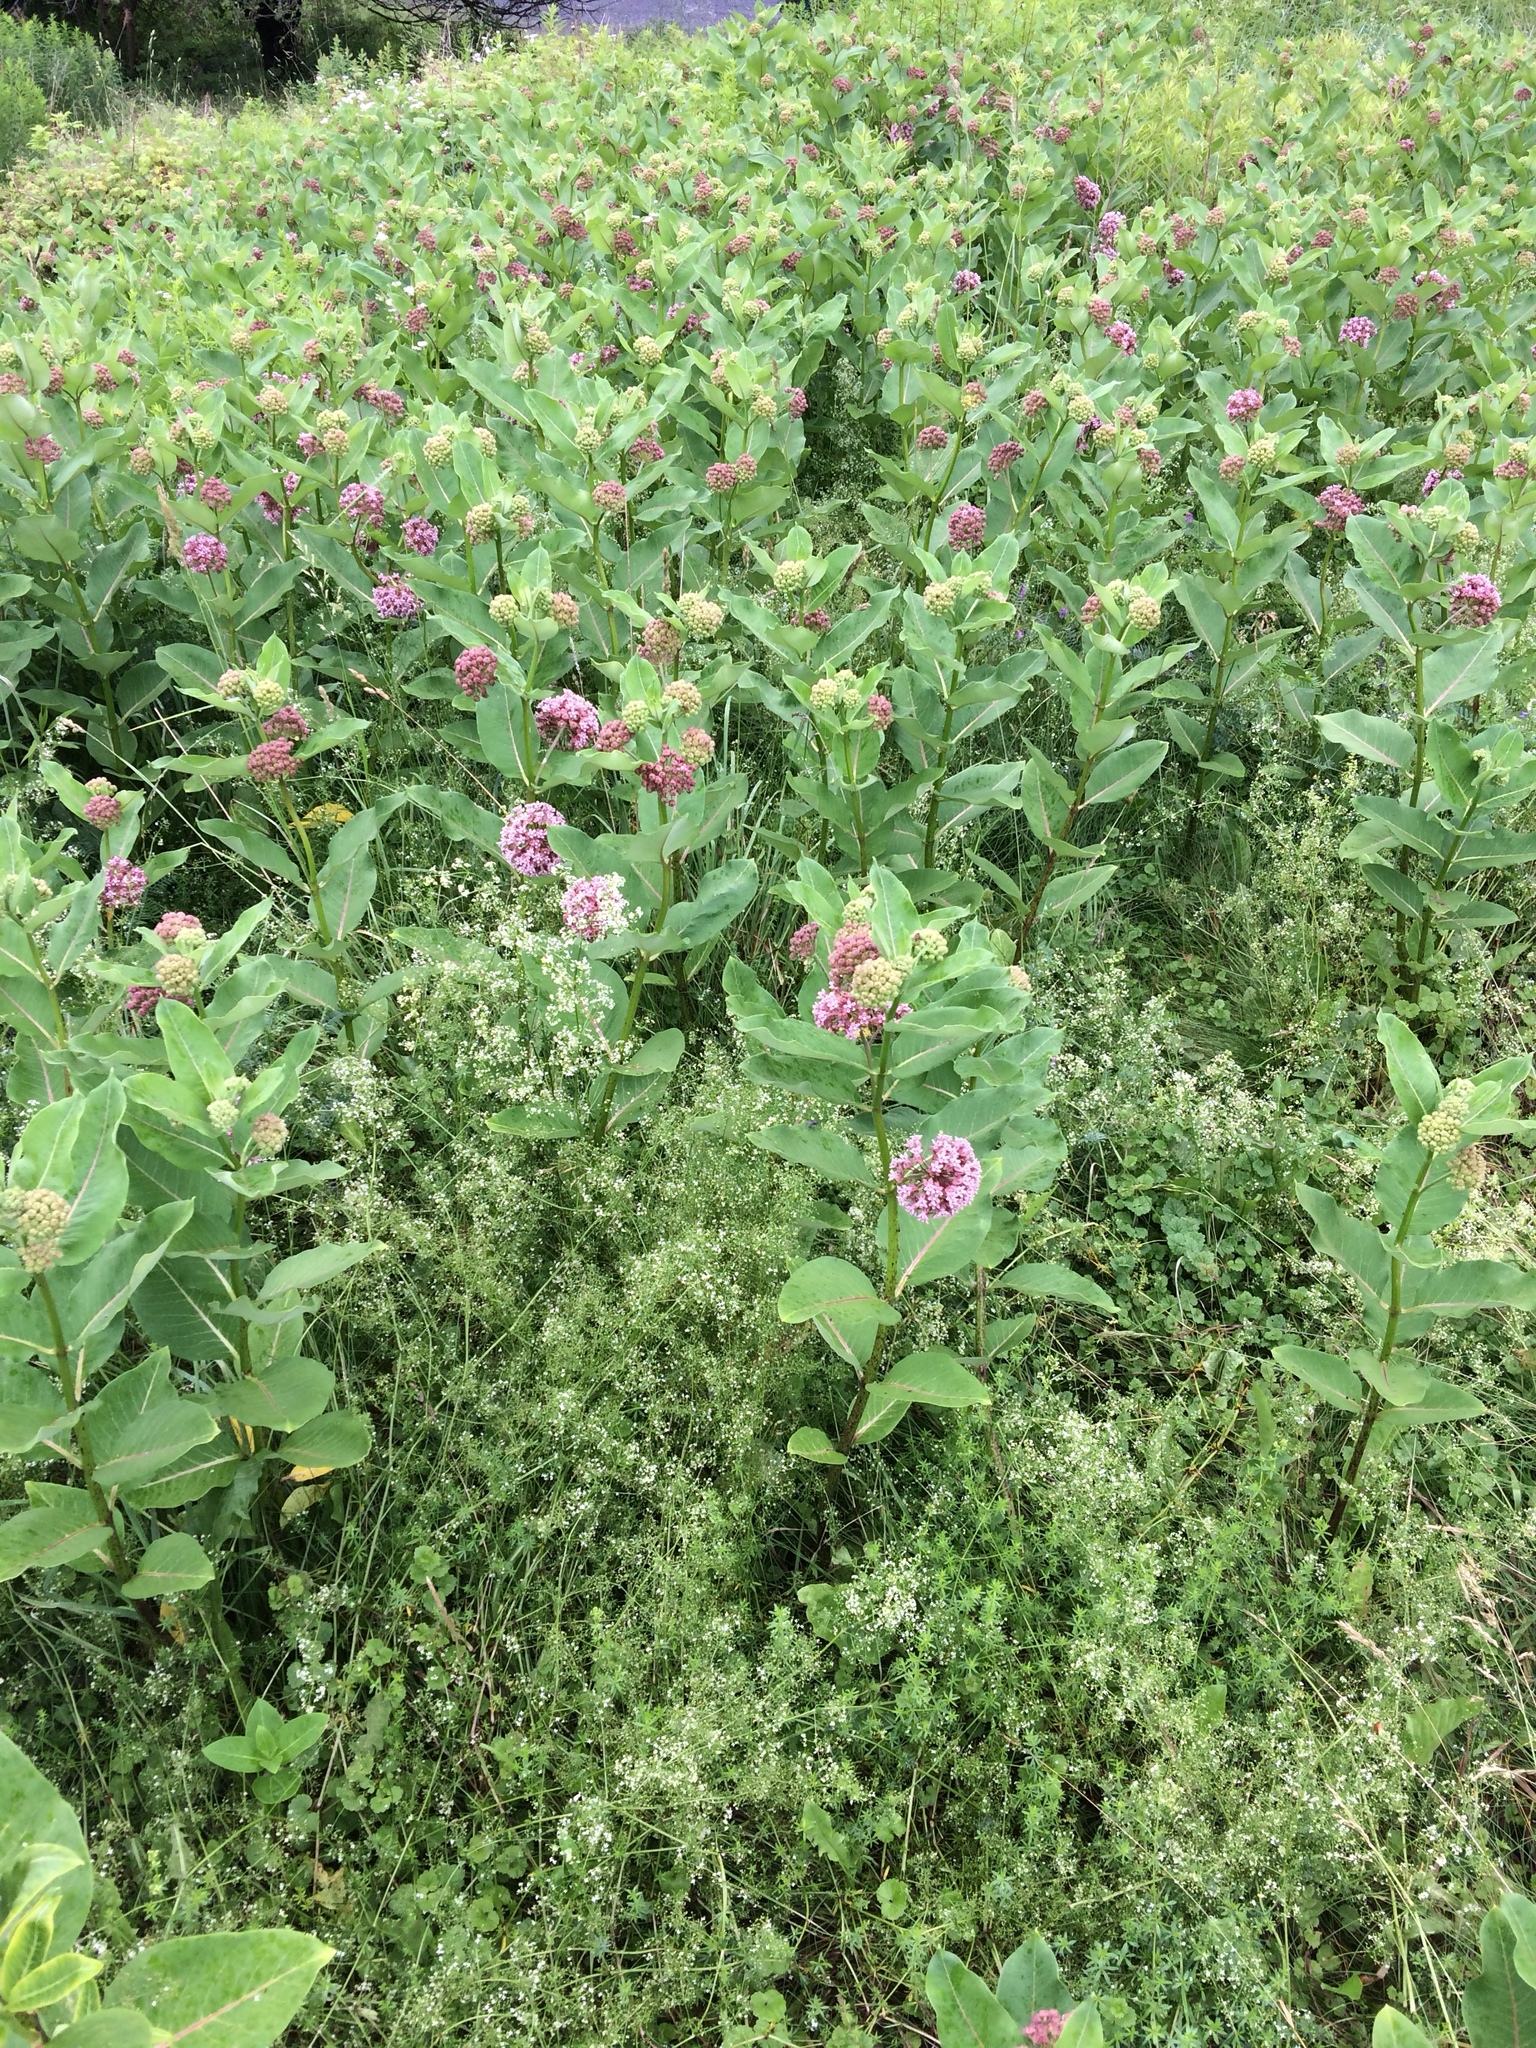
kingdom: Plantae
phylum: Tracheophyta
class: Magnoliopsida
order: Gentianales
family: Apocynaceae
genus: Asclepias
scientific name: Asclepias syriaca
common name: Common milkweed
